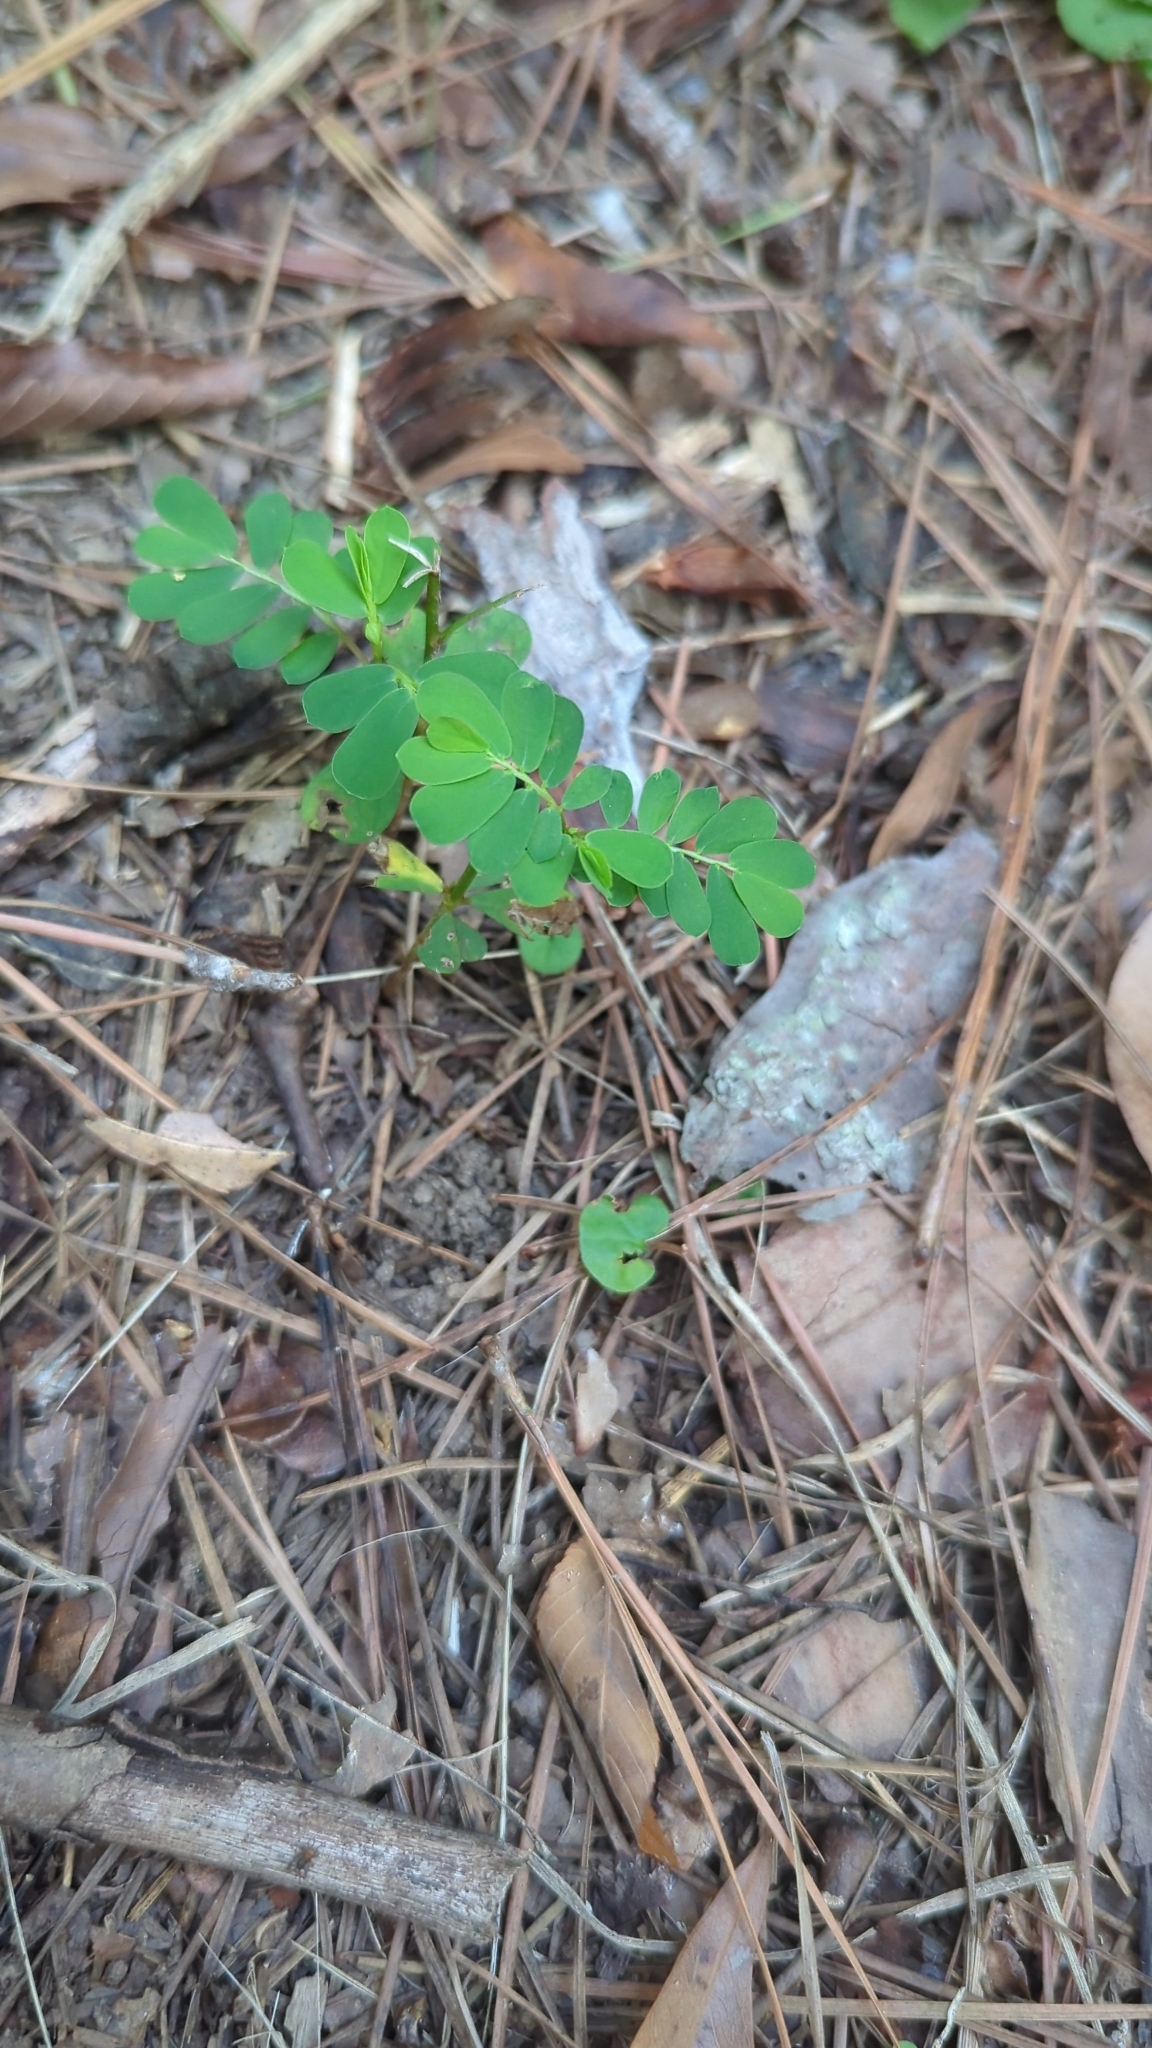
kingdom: Plantae
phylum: Tracheophyta
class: Magnoliopsida
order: Malpighiales
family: Phyllanthaceae
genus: Phyllanthus
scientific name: Phyllanthus urinaria
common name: Chamber bitter
